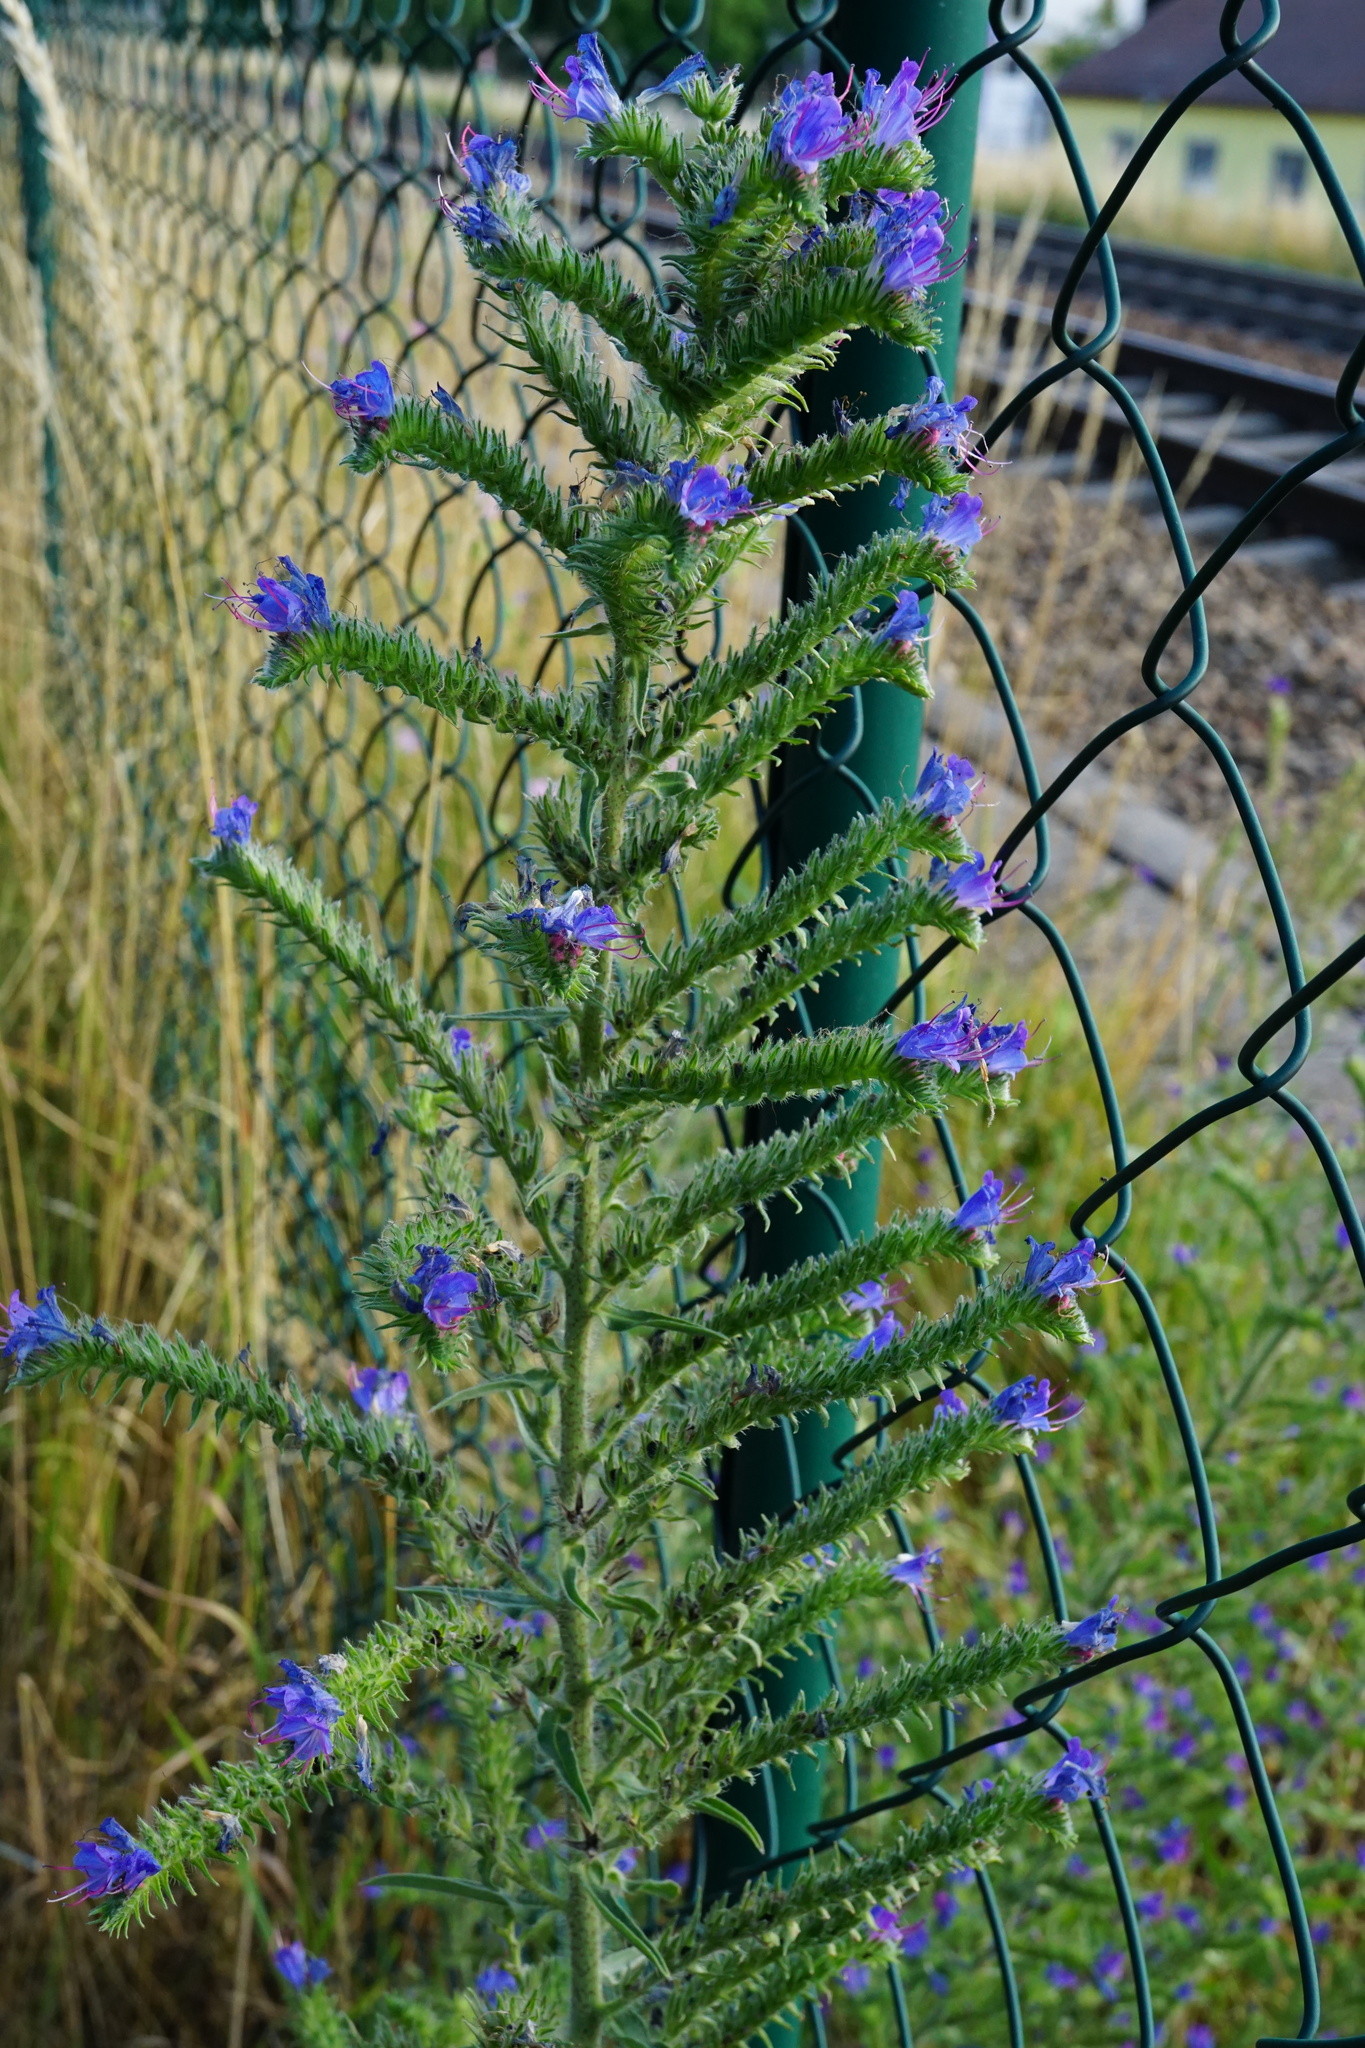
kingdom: Plantae
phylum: Tracheophyta
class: Magnoliopsida
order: Boraginales
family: Boraginaceae
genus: Echium
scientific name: Echium vulgare
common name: Common viper's bugloss
